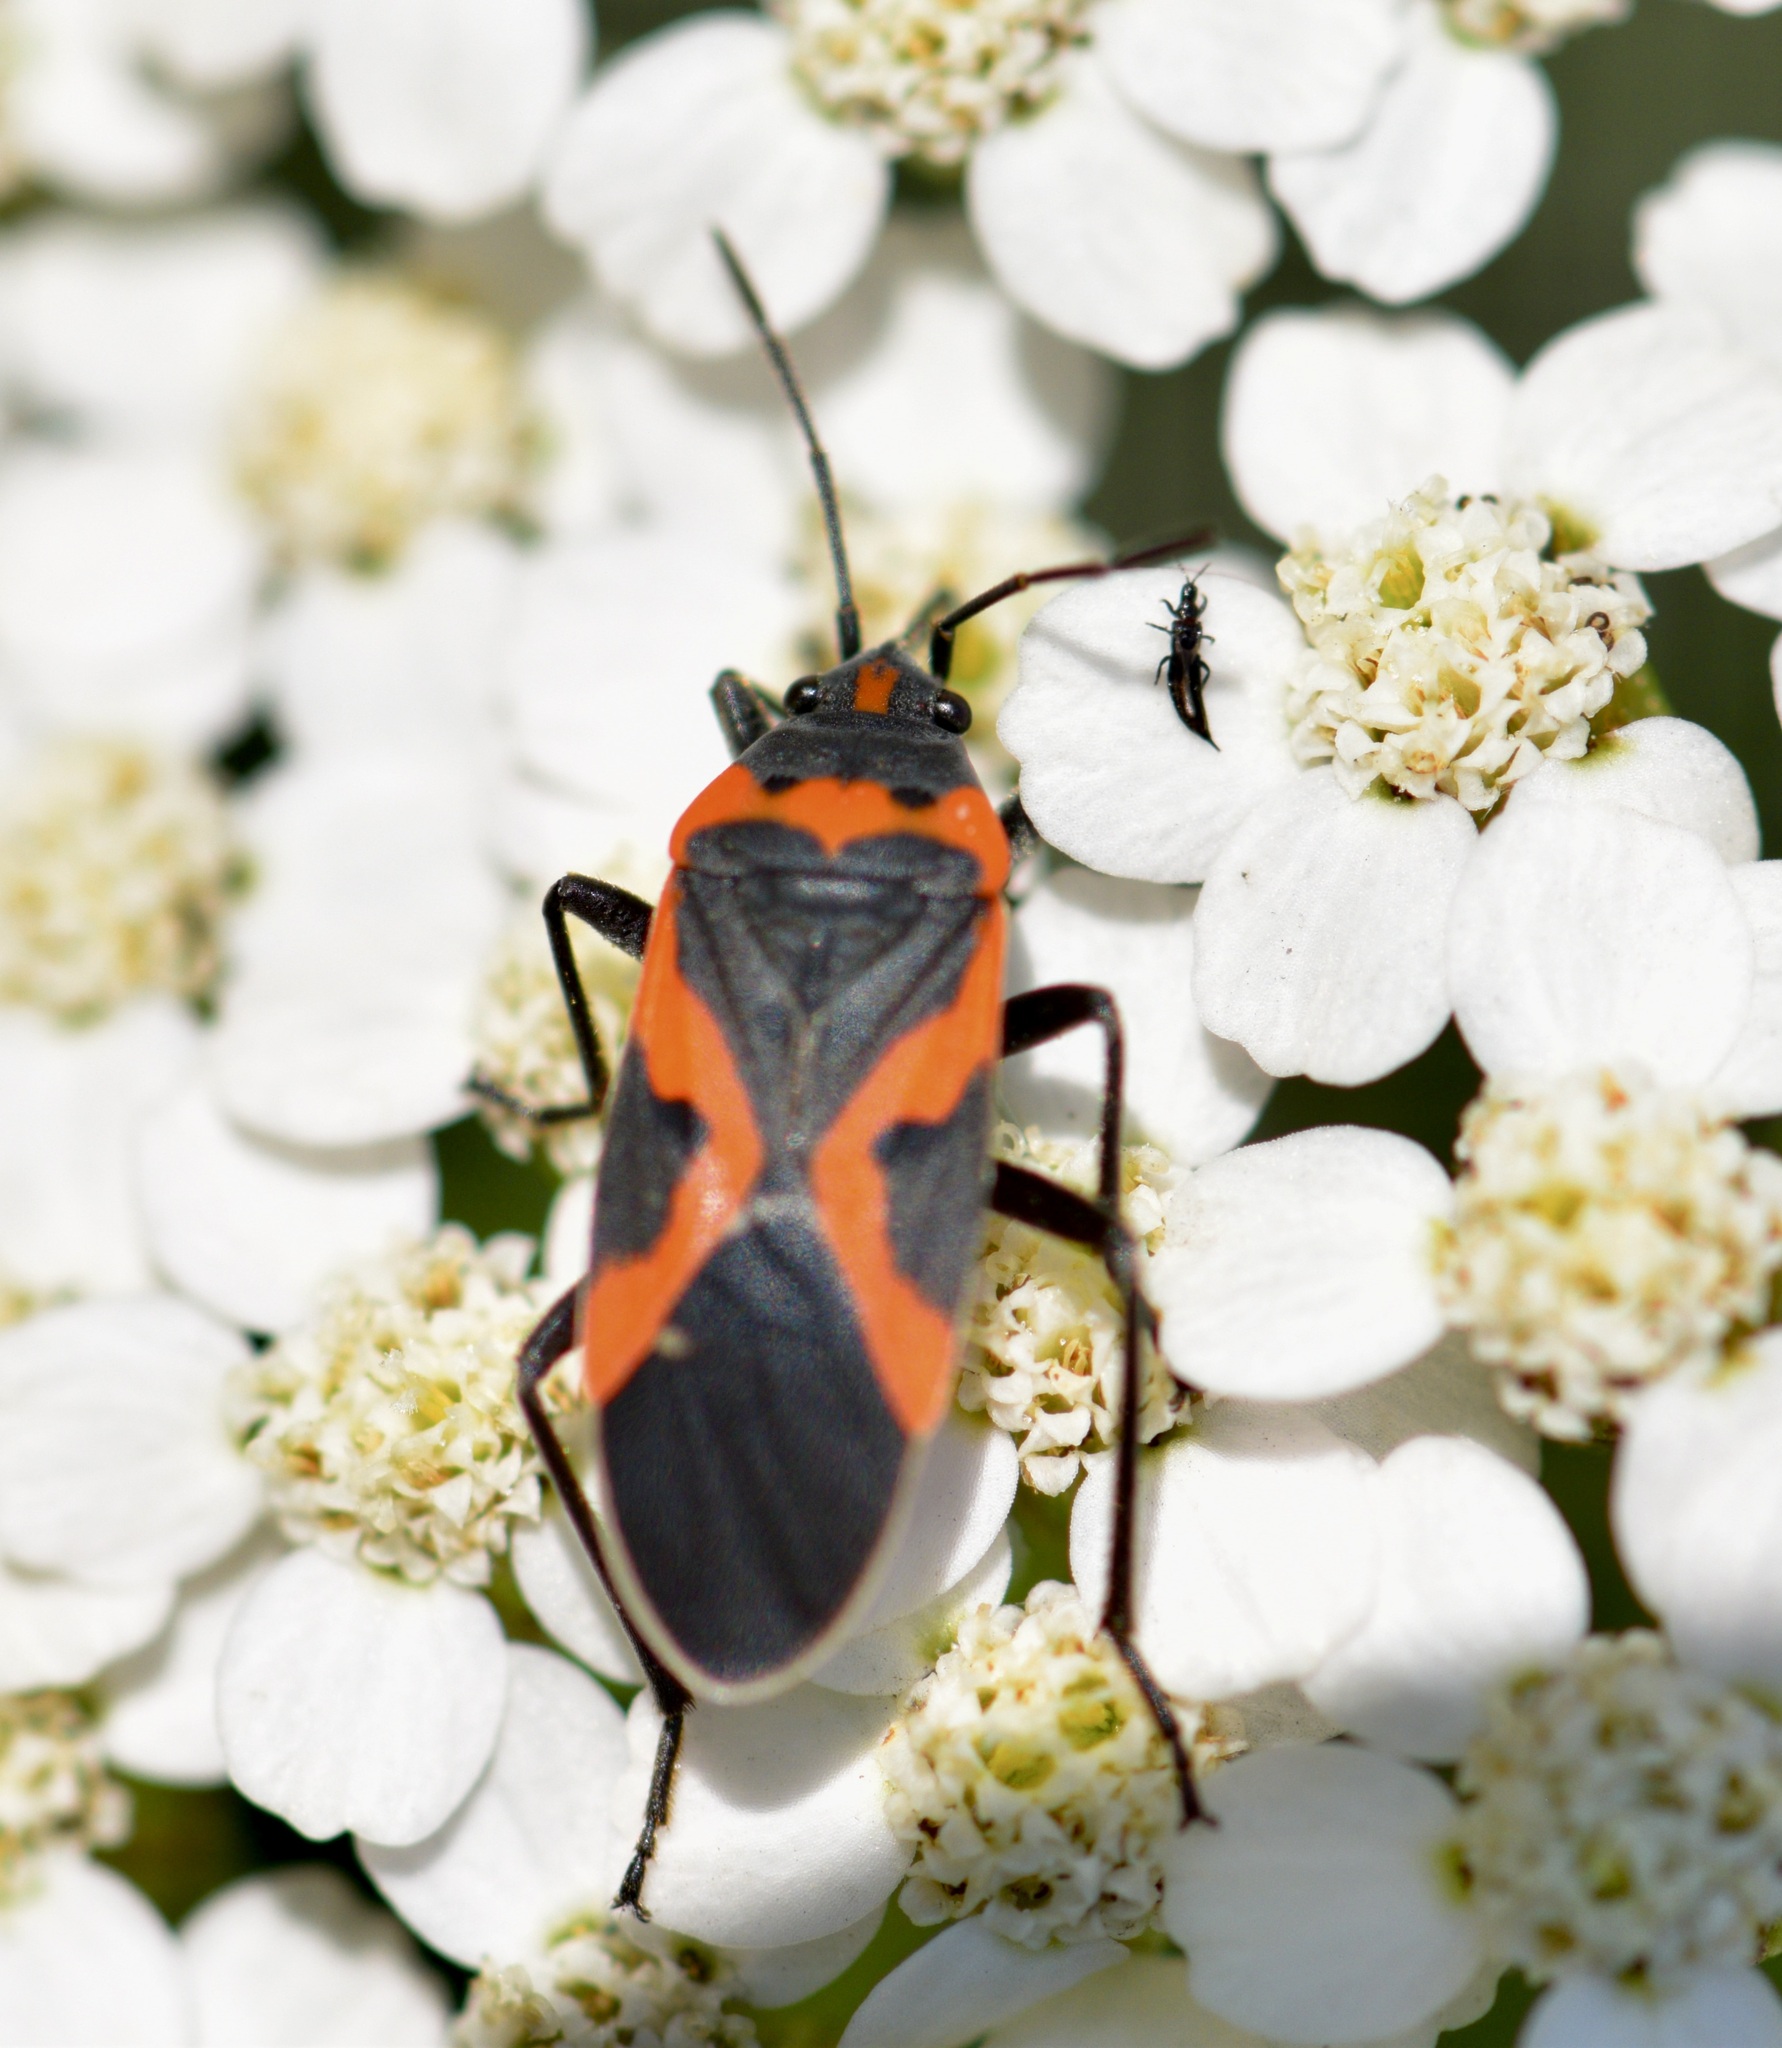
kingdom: Animalia
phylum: Arthropoda
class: Insecta
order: Hemiptera
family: Lygaeidae
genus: Lygaeus
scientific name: Lygaeus kalmii
